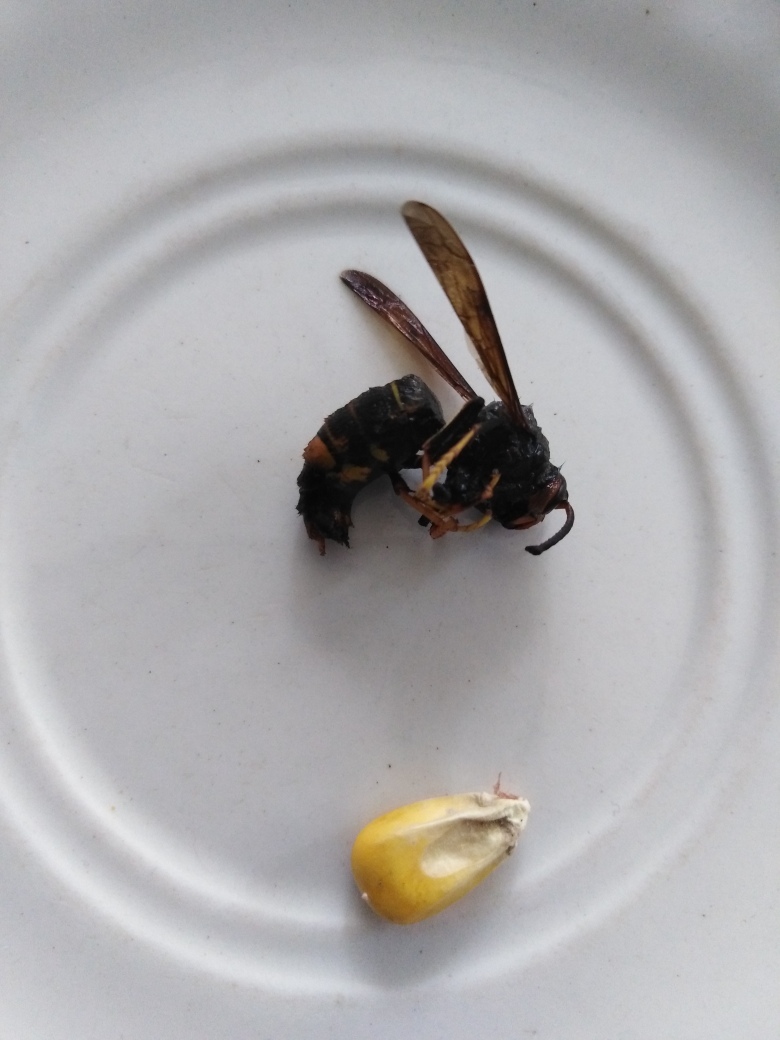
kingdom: Animalia
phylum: Arthropoda
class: Insecta
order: Hymenoptera
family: Vespidae
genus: Vespa
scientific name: Vespa velutina
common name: Asian hornet
